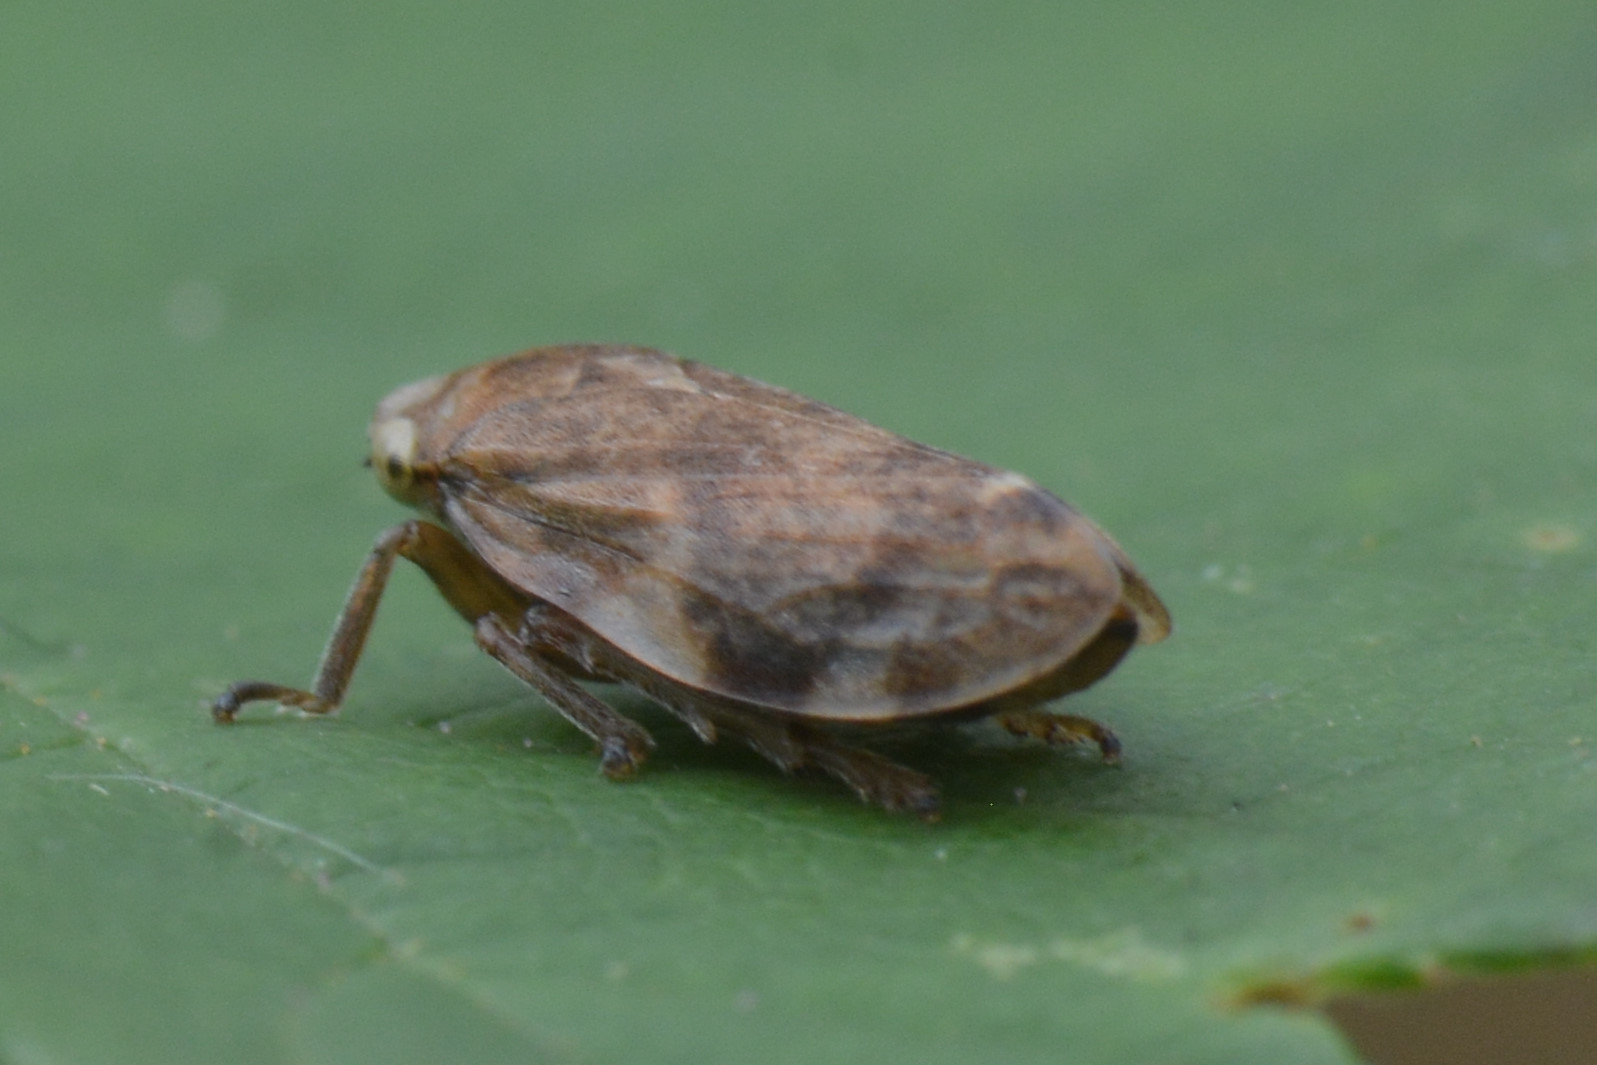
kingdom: Animalia
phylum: Arthropoda
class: Insecta
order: Hemiptera
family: Aphrophoridae
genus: Philaenus
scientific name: Philaenus spumarius
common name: Meadow spittlebug
